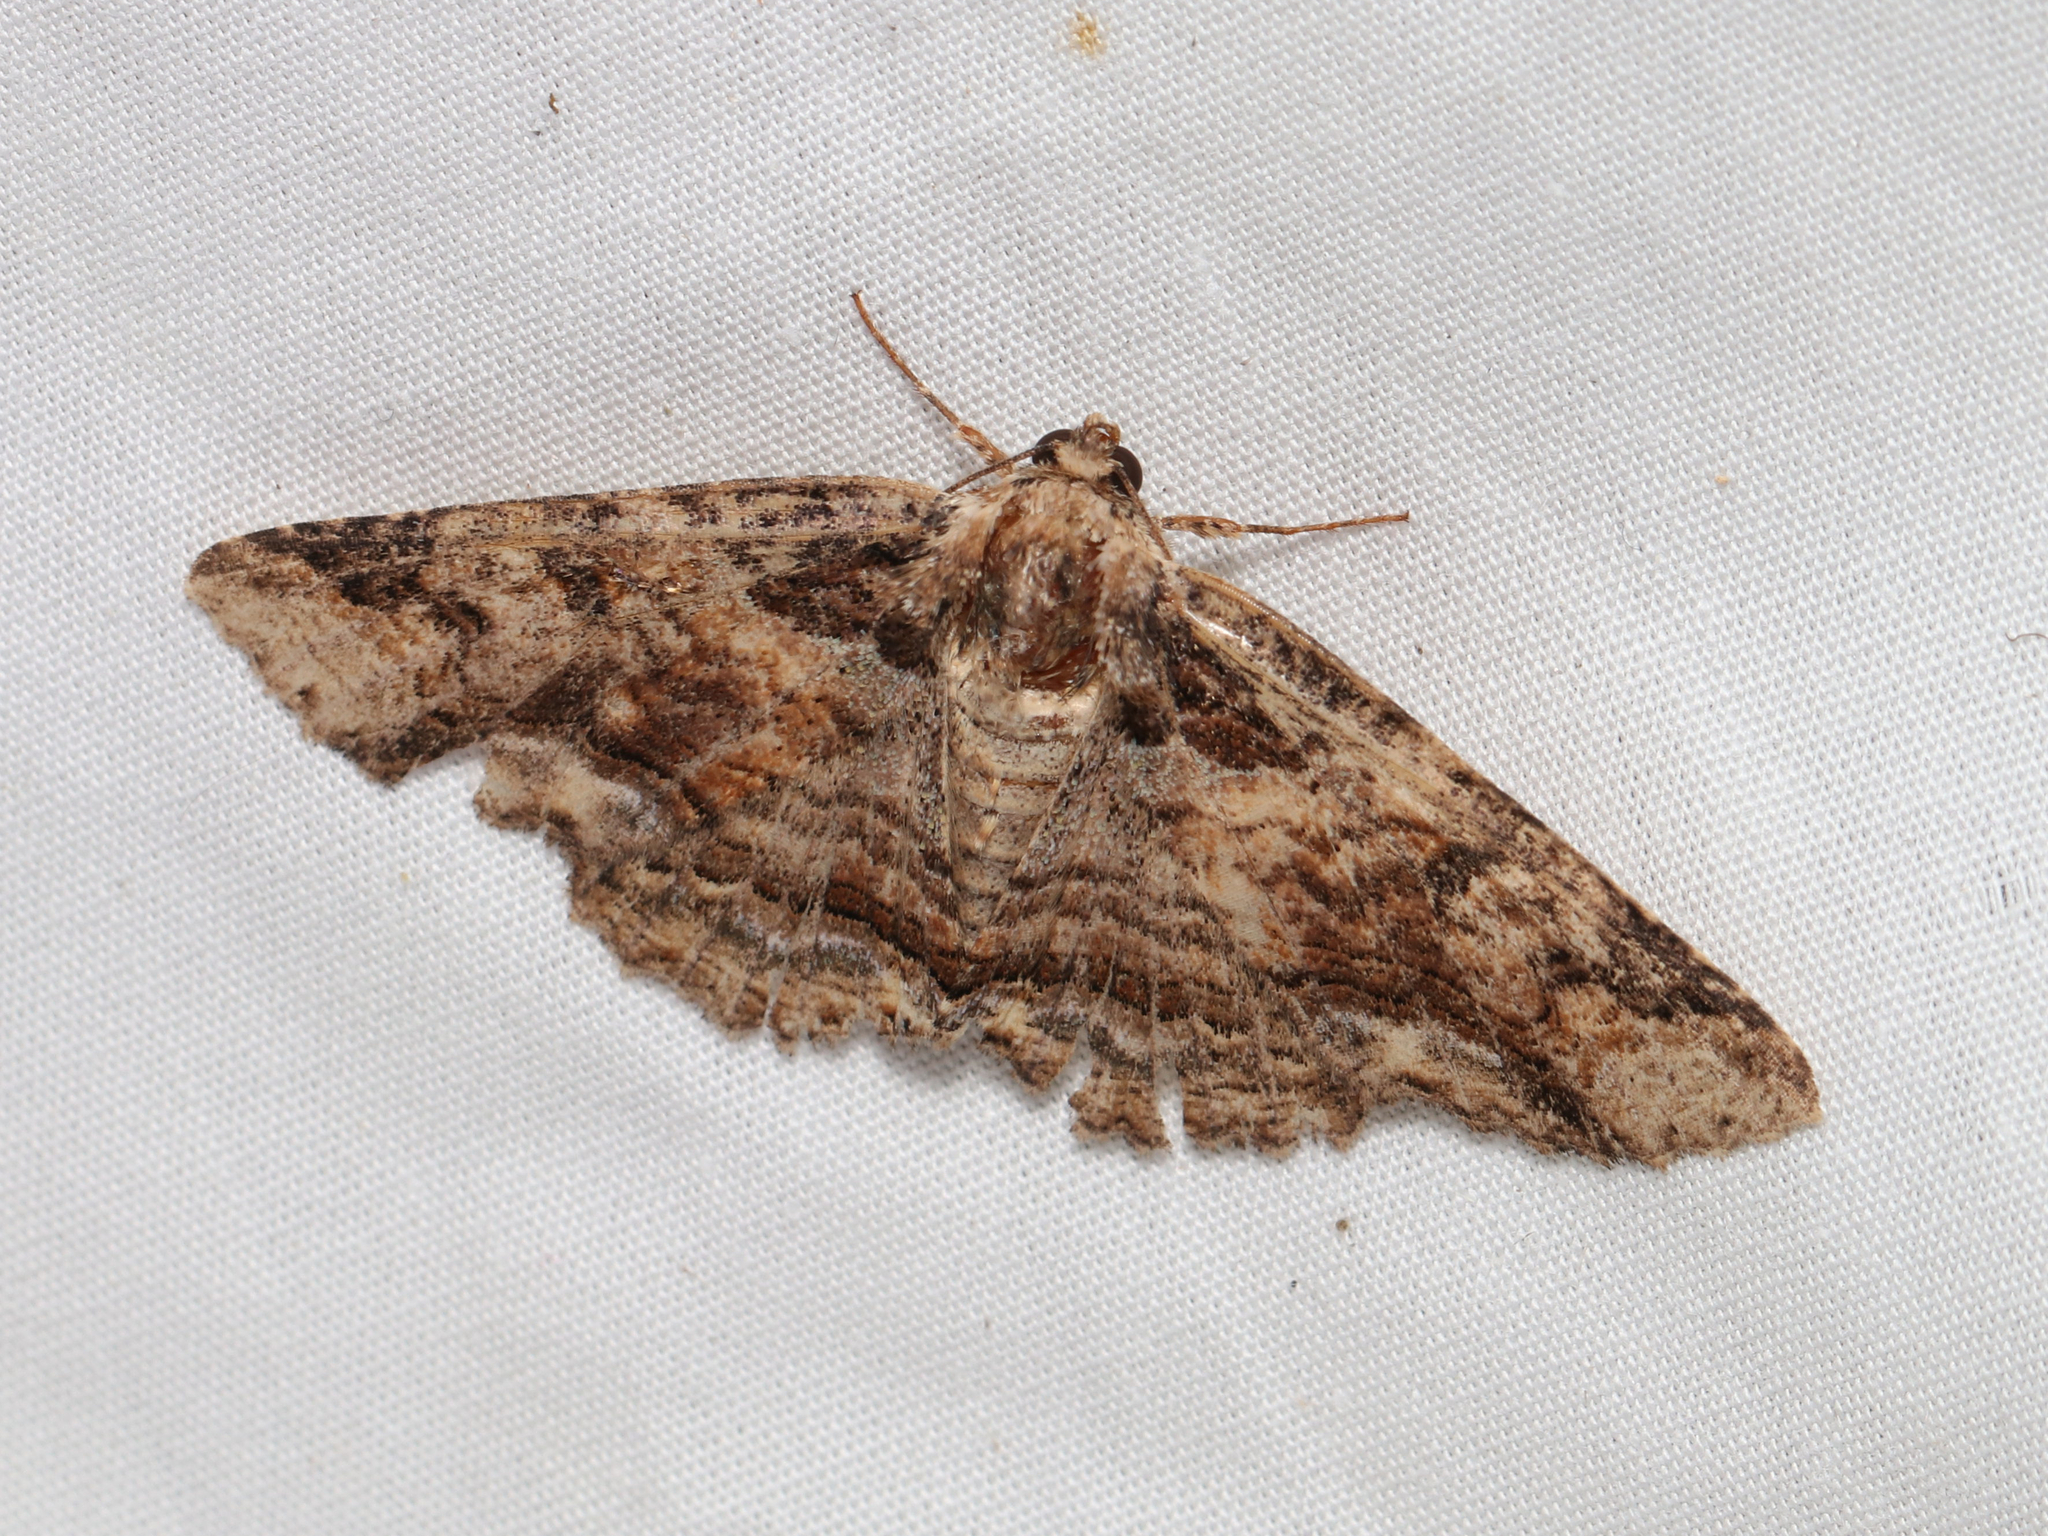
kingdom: Animalia
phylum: Arthropoda
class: Insecta
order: Lepidoptera
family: Erebidae
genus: Zale
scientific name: Zale minerea
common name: Colorful zale moth
